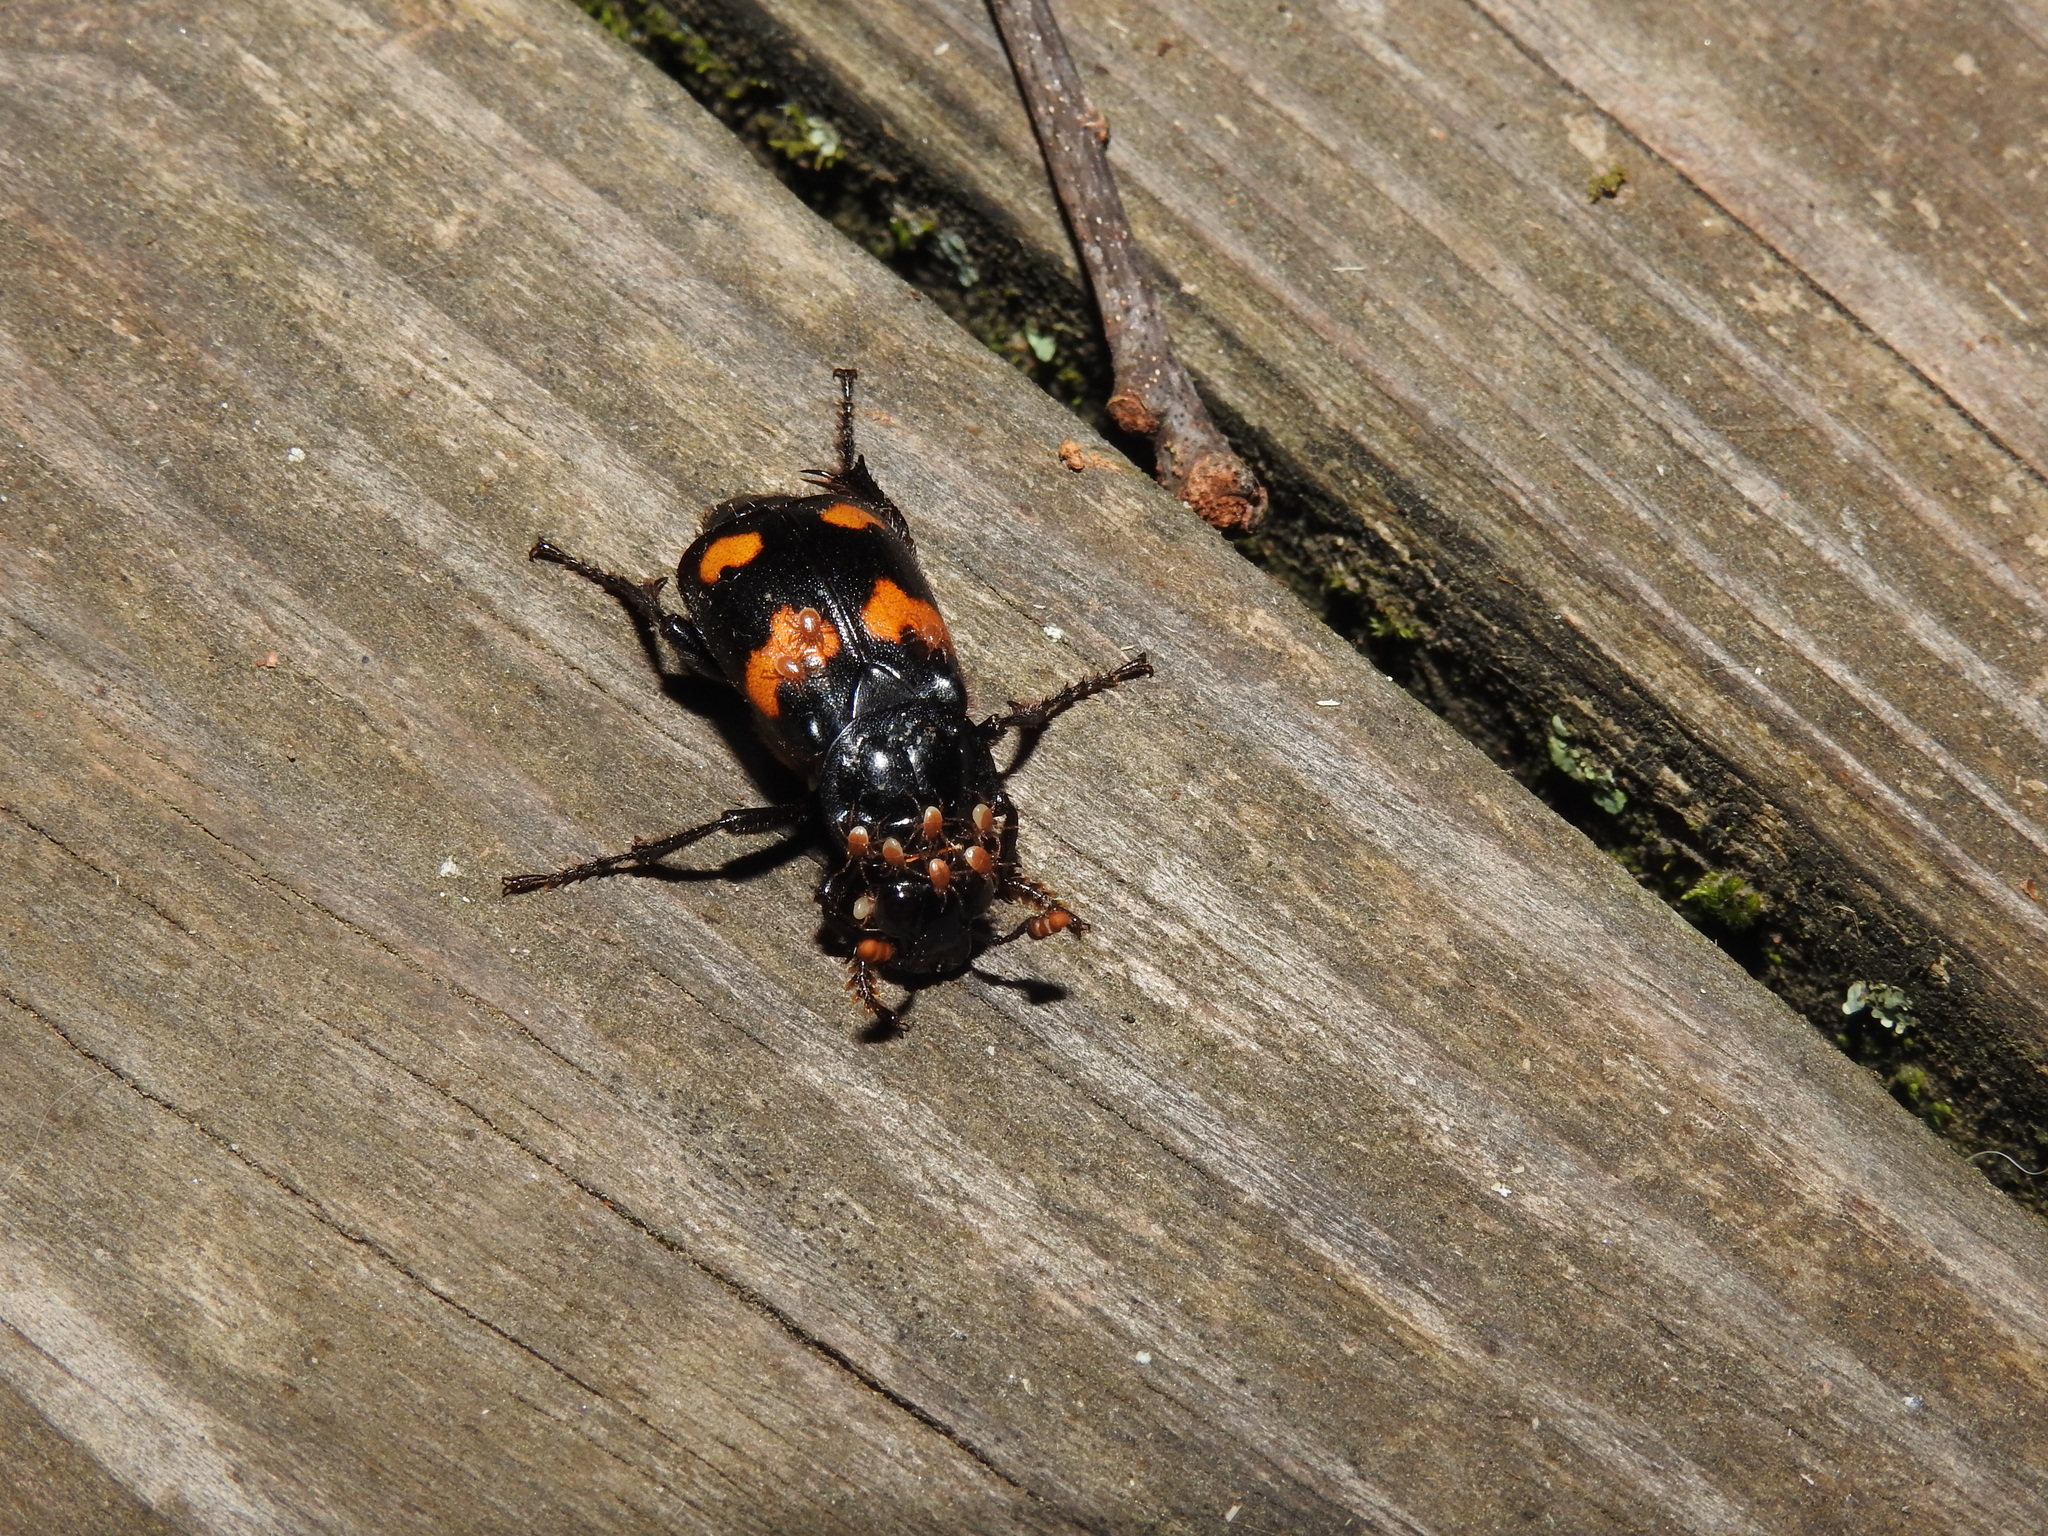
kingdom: Animalia
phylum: Arthropoda
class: Insecta
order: Coleoptera
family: Staphylinidae
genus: Nicrophorus
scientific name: Nicrophorus orbicollis
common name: Roundneck sexton beetle
